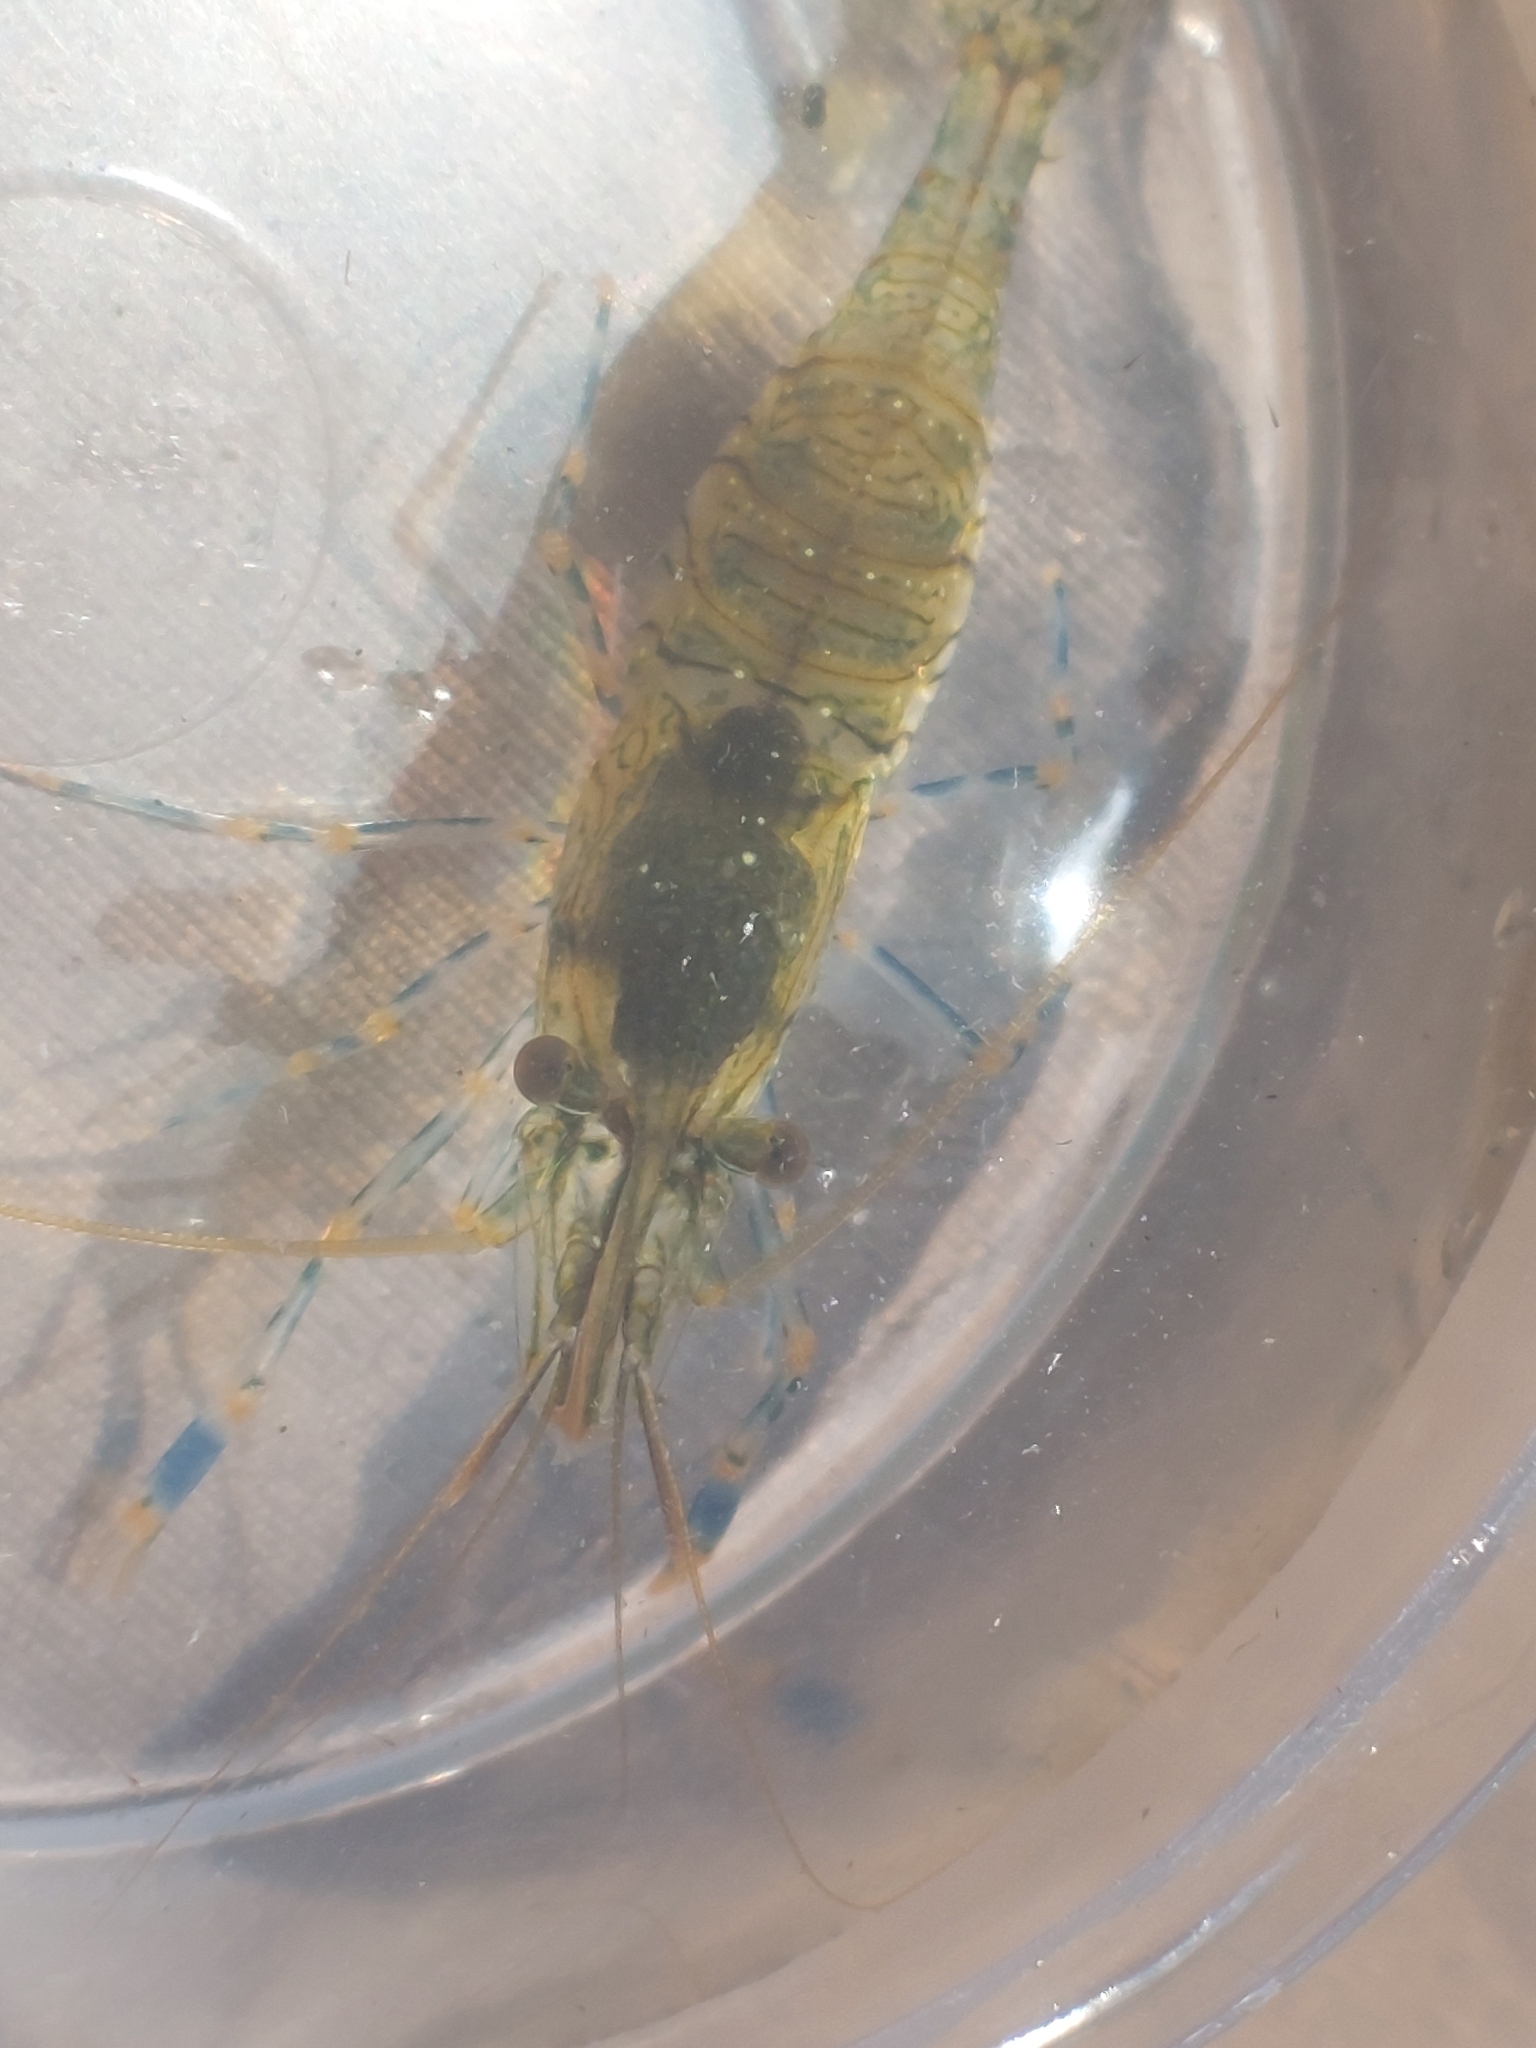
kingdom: Animalia
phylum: Arthropoda
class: Malacostraca
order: Decapoda
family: Palaemonidae
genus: Palaemon
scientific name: Palaemon elegans
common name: Grass prawm
